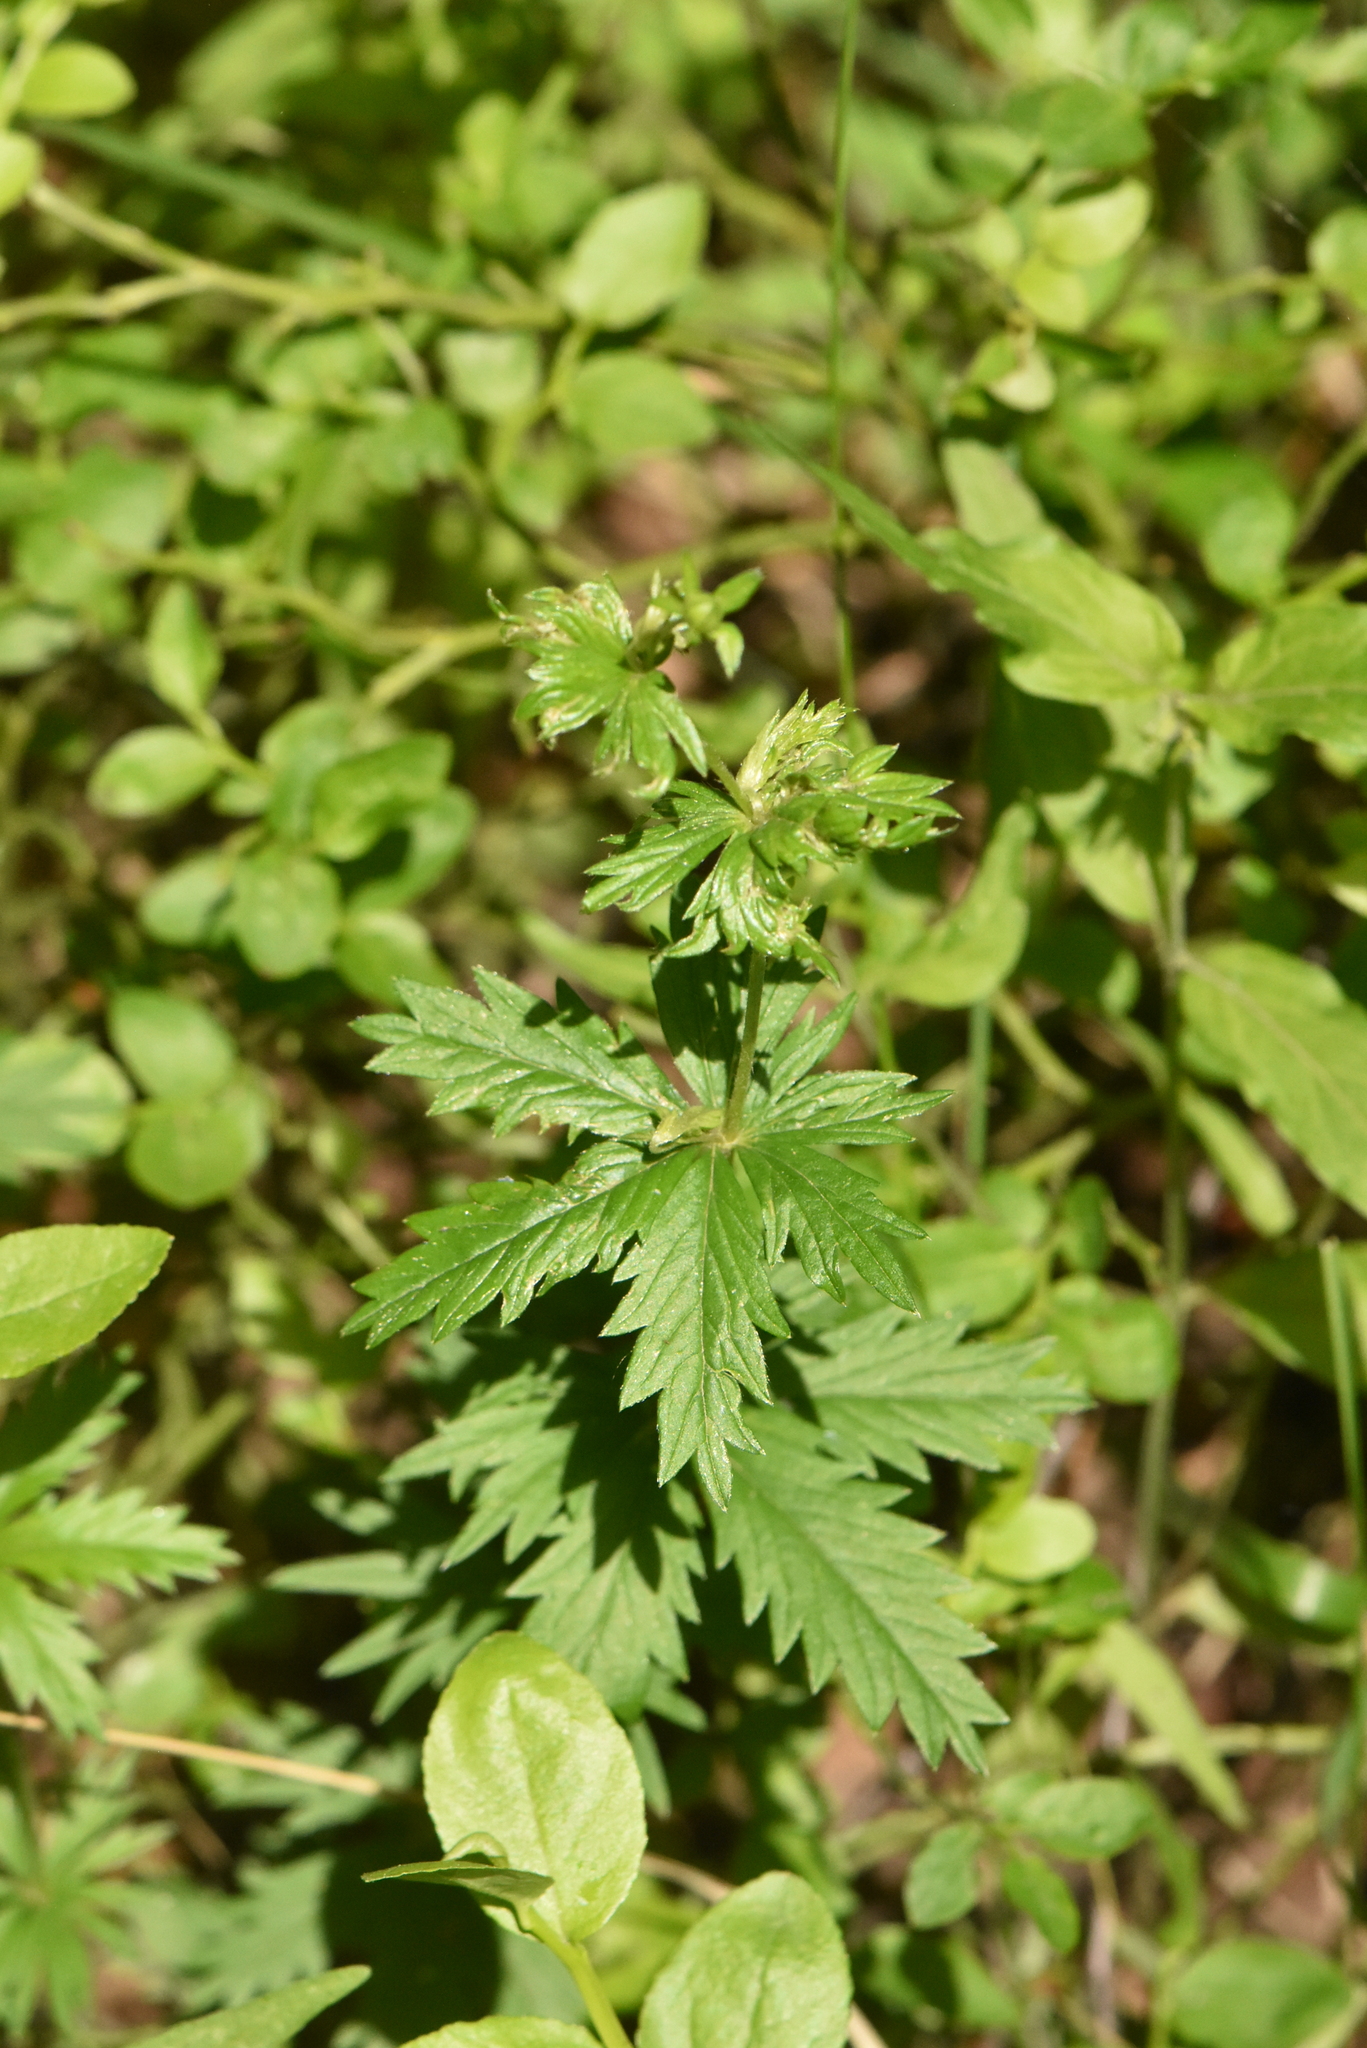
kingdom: Plantae
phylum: Tracheophyta
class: Magnoliopsida
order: Rosales
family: Rosaceae
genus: Potentilla
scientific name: Potentilla erecta
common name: Tormentil
